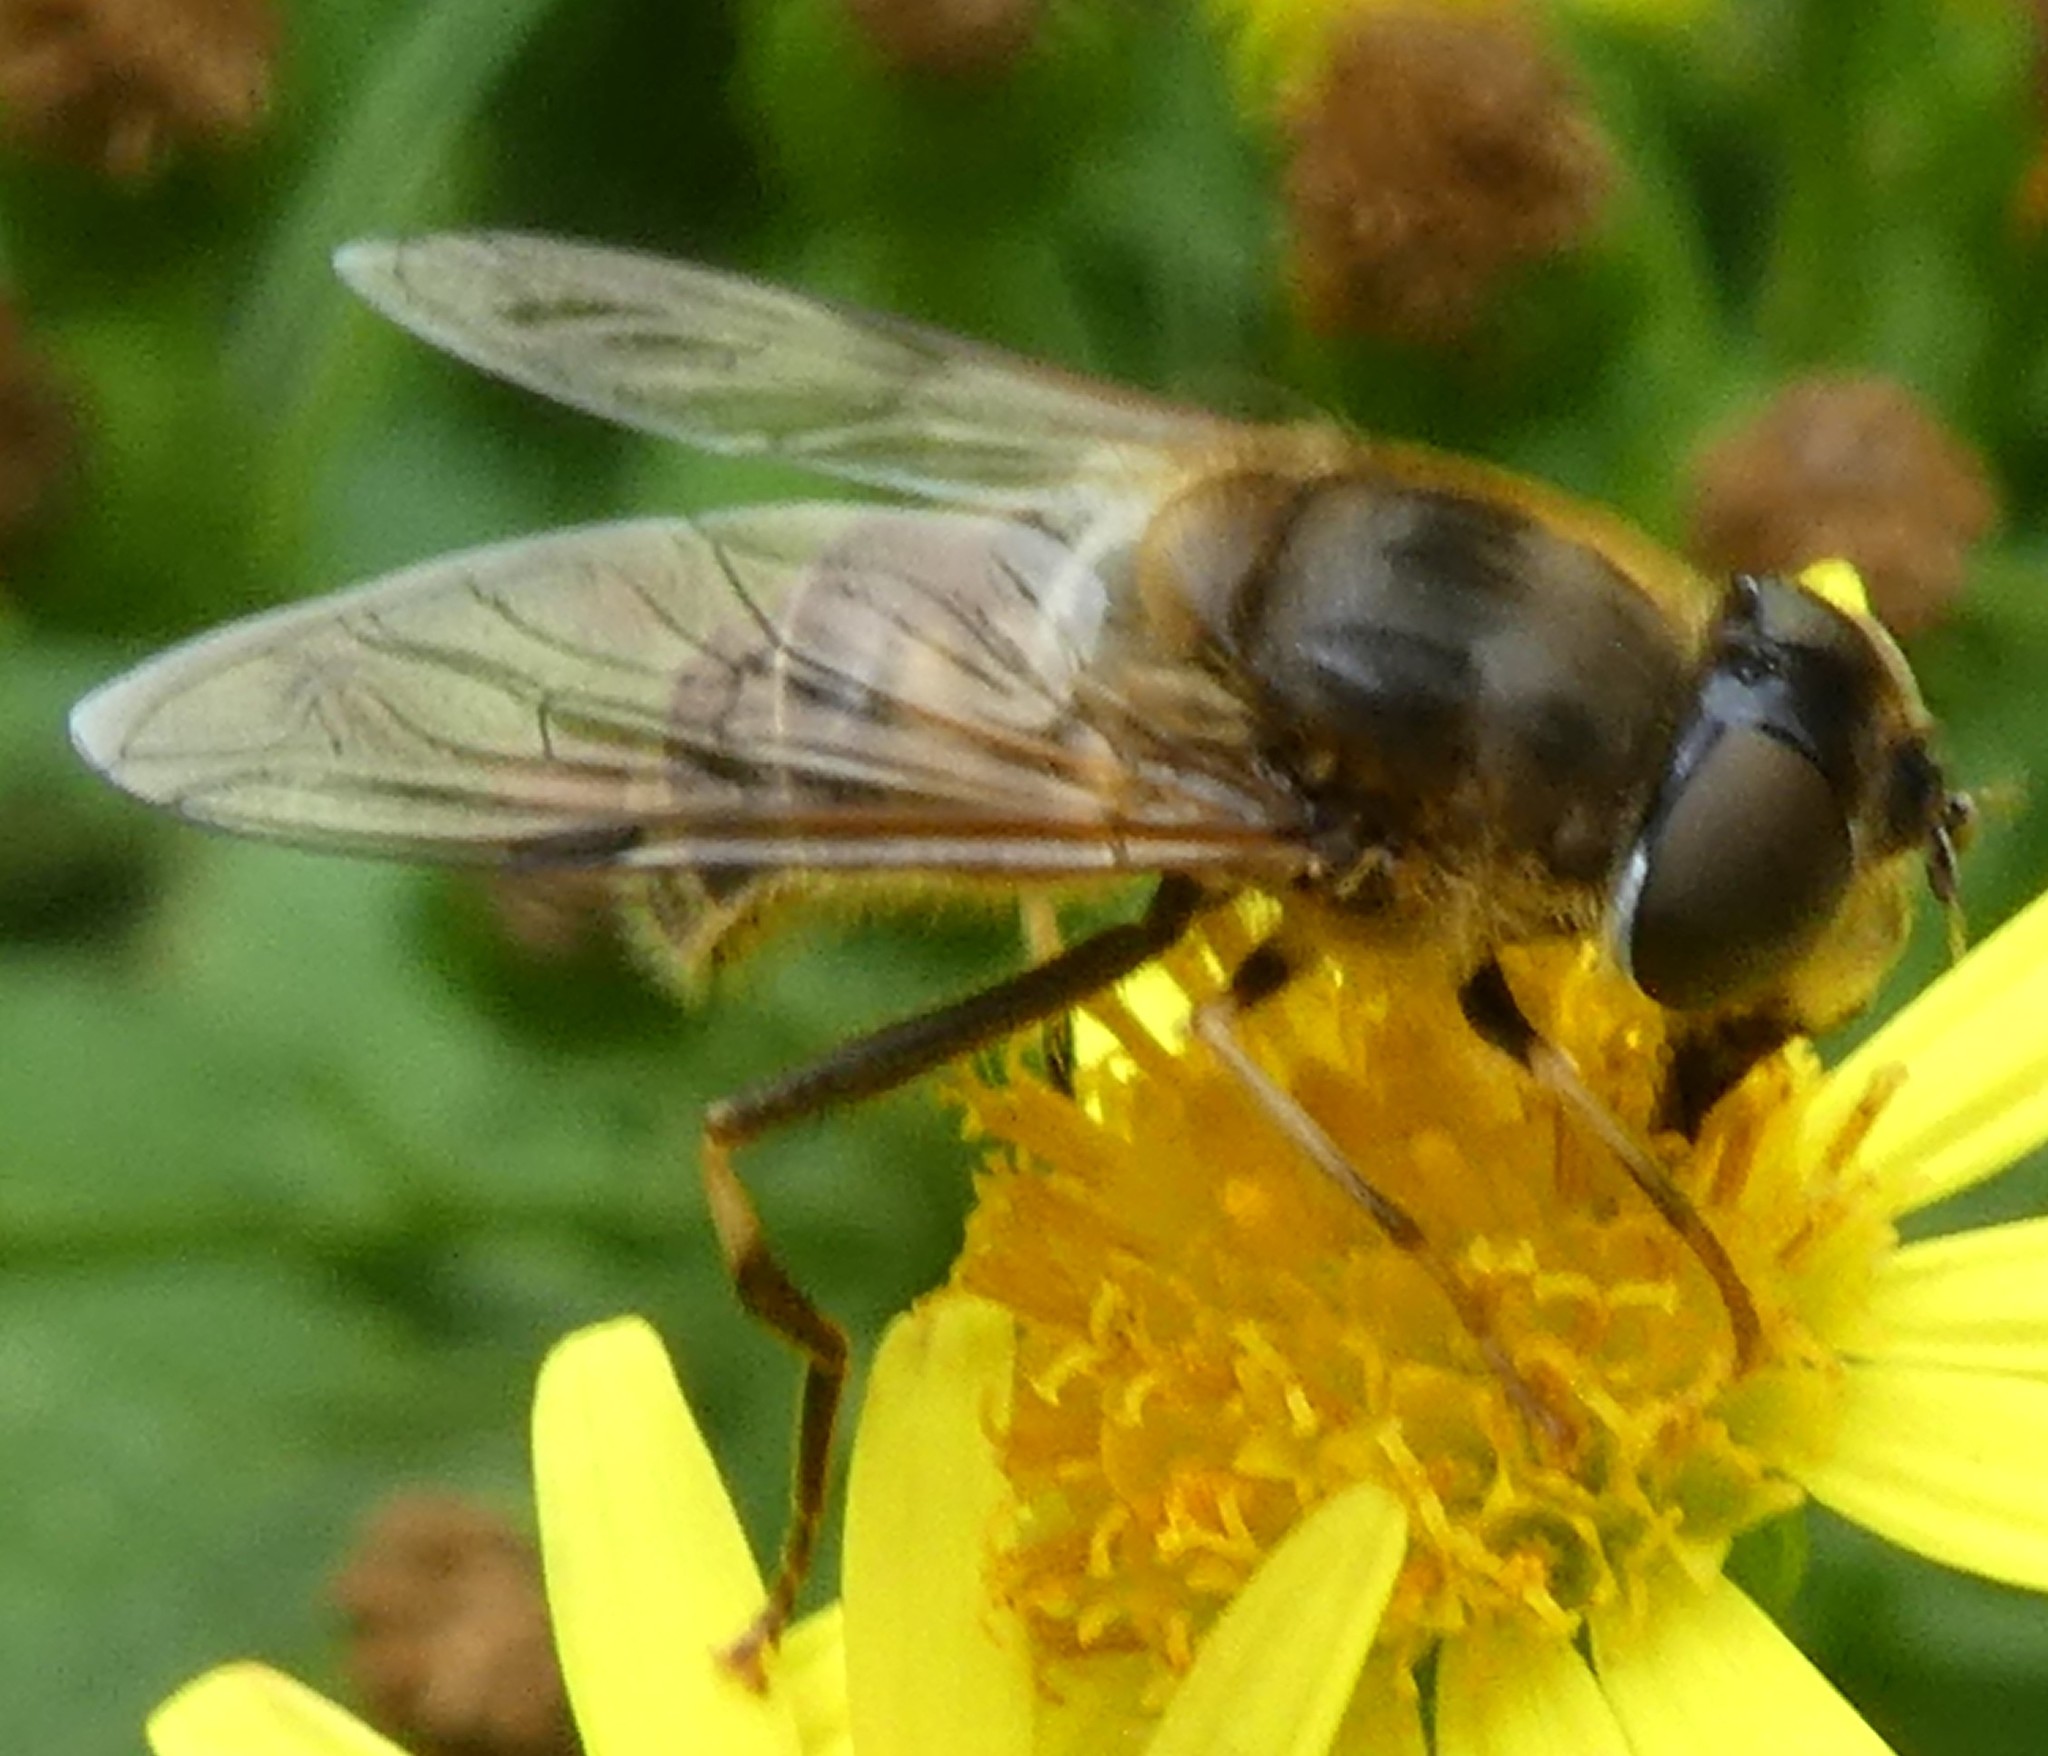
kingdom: Animalia
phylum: Arthropoda
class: Insecta
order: Diptera
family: Syrphidae
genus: Eristalis
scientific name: Eristalis pertinax
